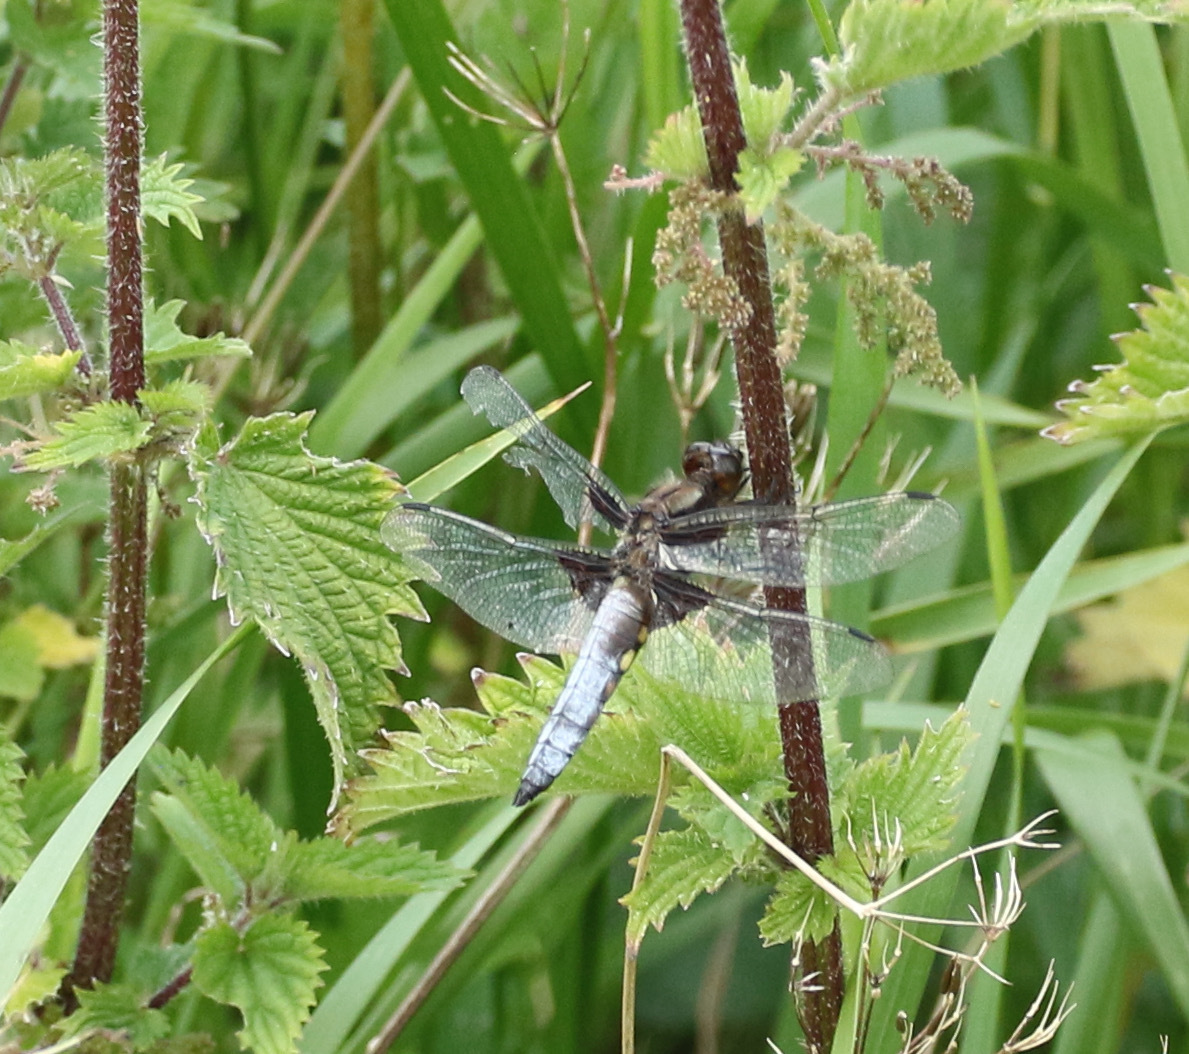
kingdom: Animalia
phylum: Arthropoda
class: Insecta
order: Odonata
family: Libellulidae
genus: Libellula
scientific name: Libellula depressa
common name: Broad-bodied chaser
